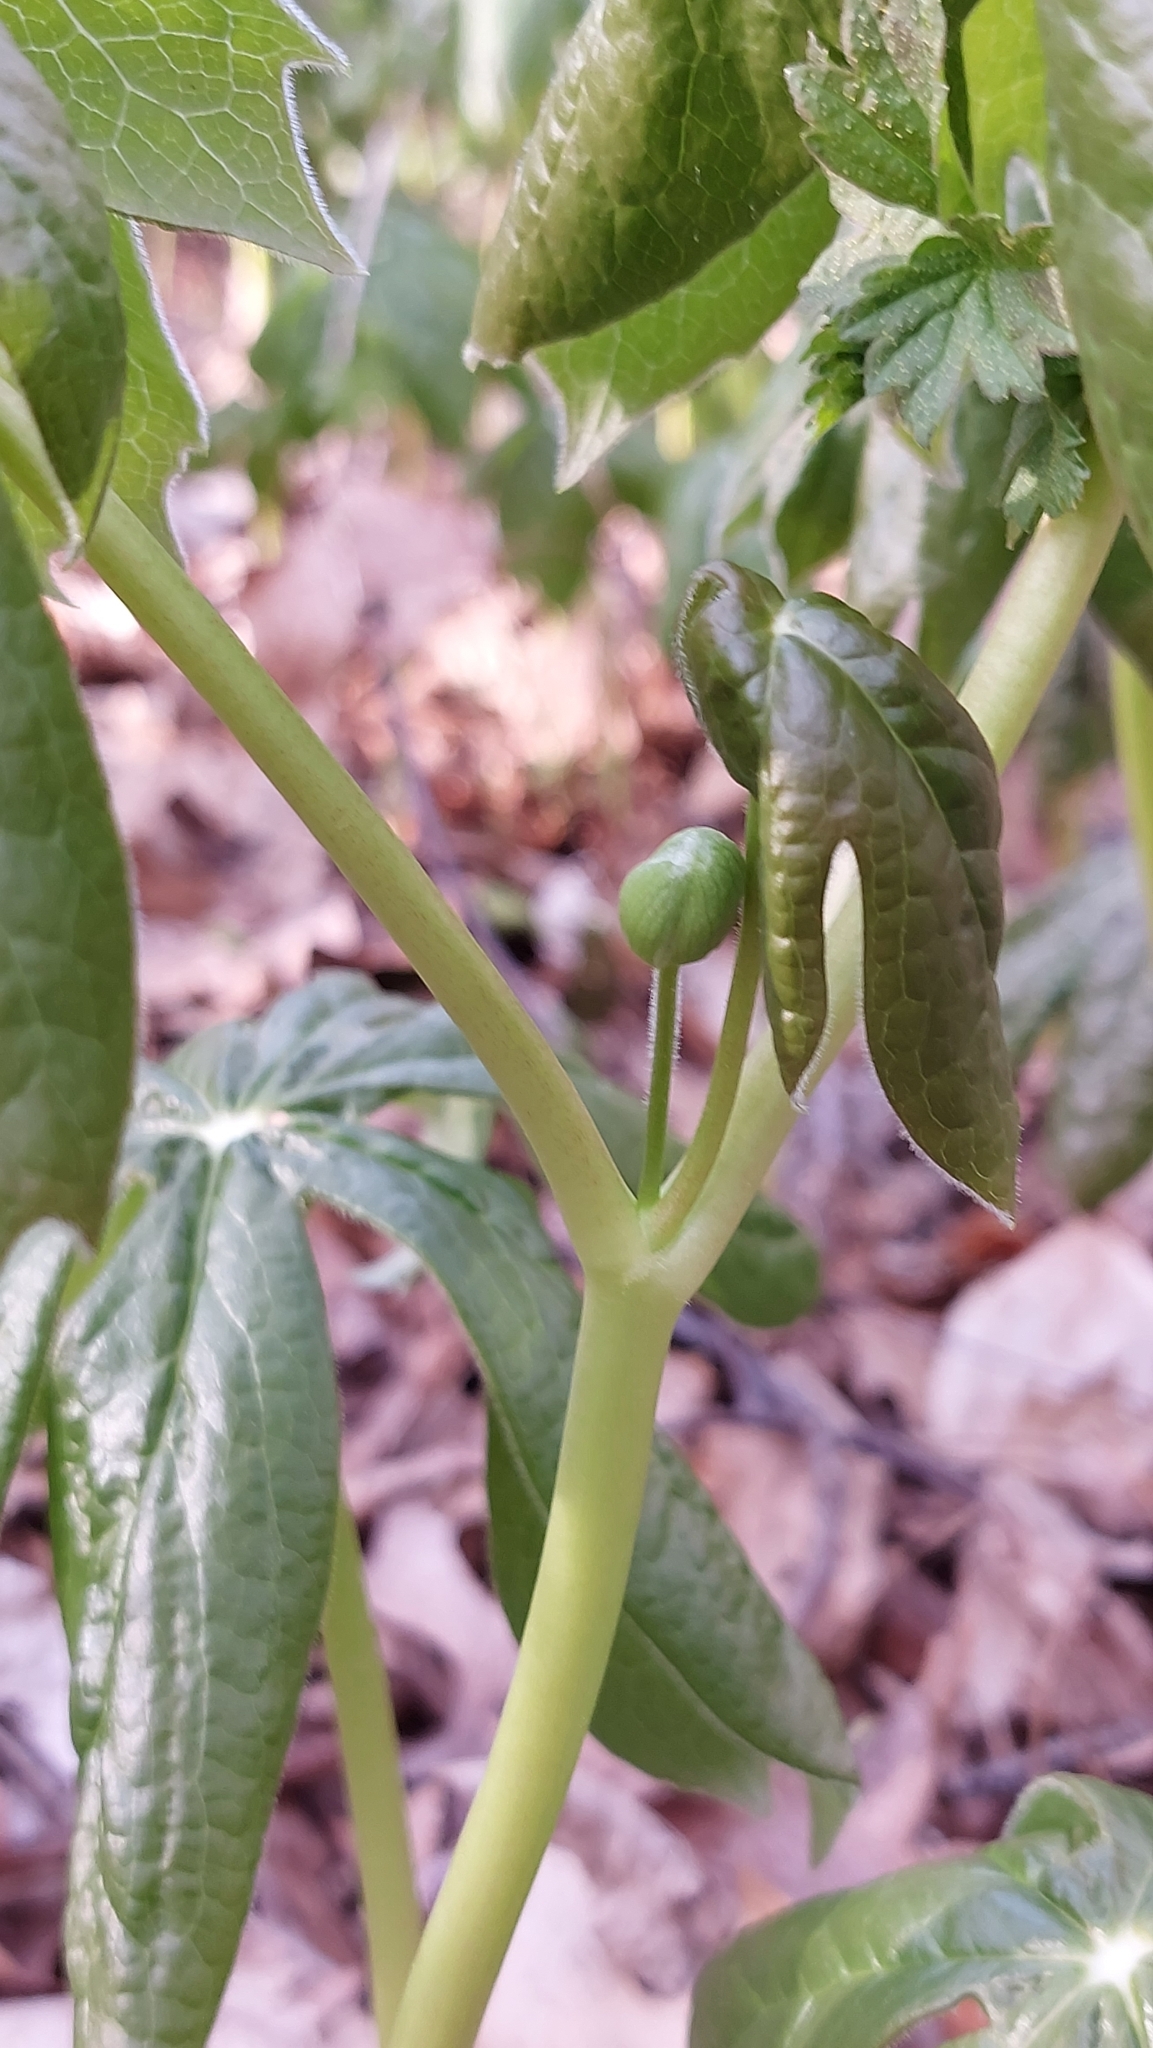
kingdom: Plantae
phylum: Tracheophyta
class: Magnoliopsida
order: Ranunculales
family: Berberidaceae
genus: Podophyllum
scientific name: Podophyllum peltatum
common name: Wild mandrake
